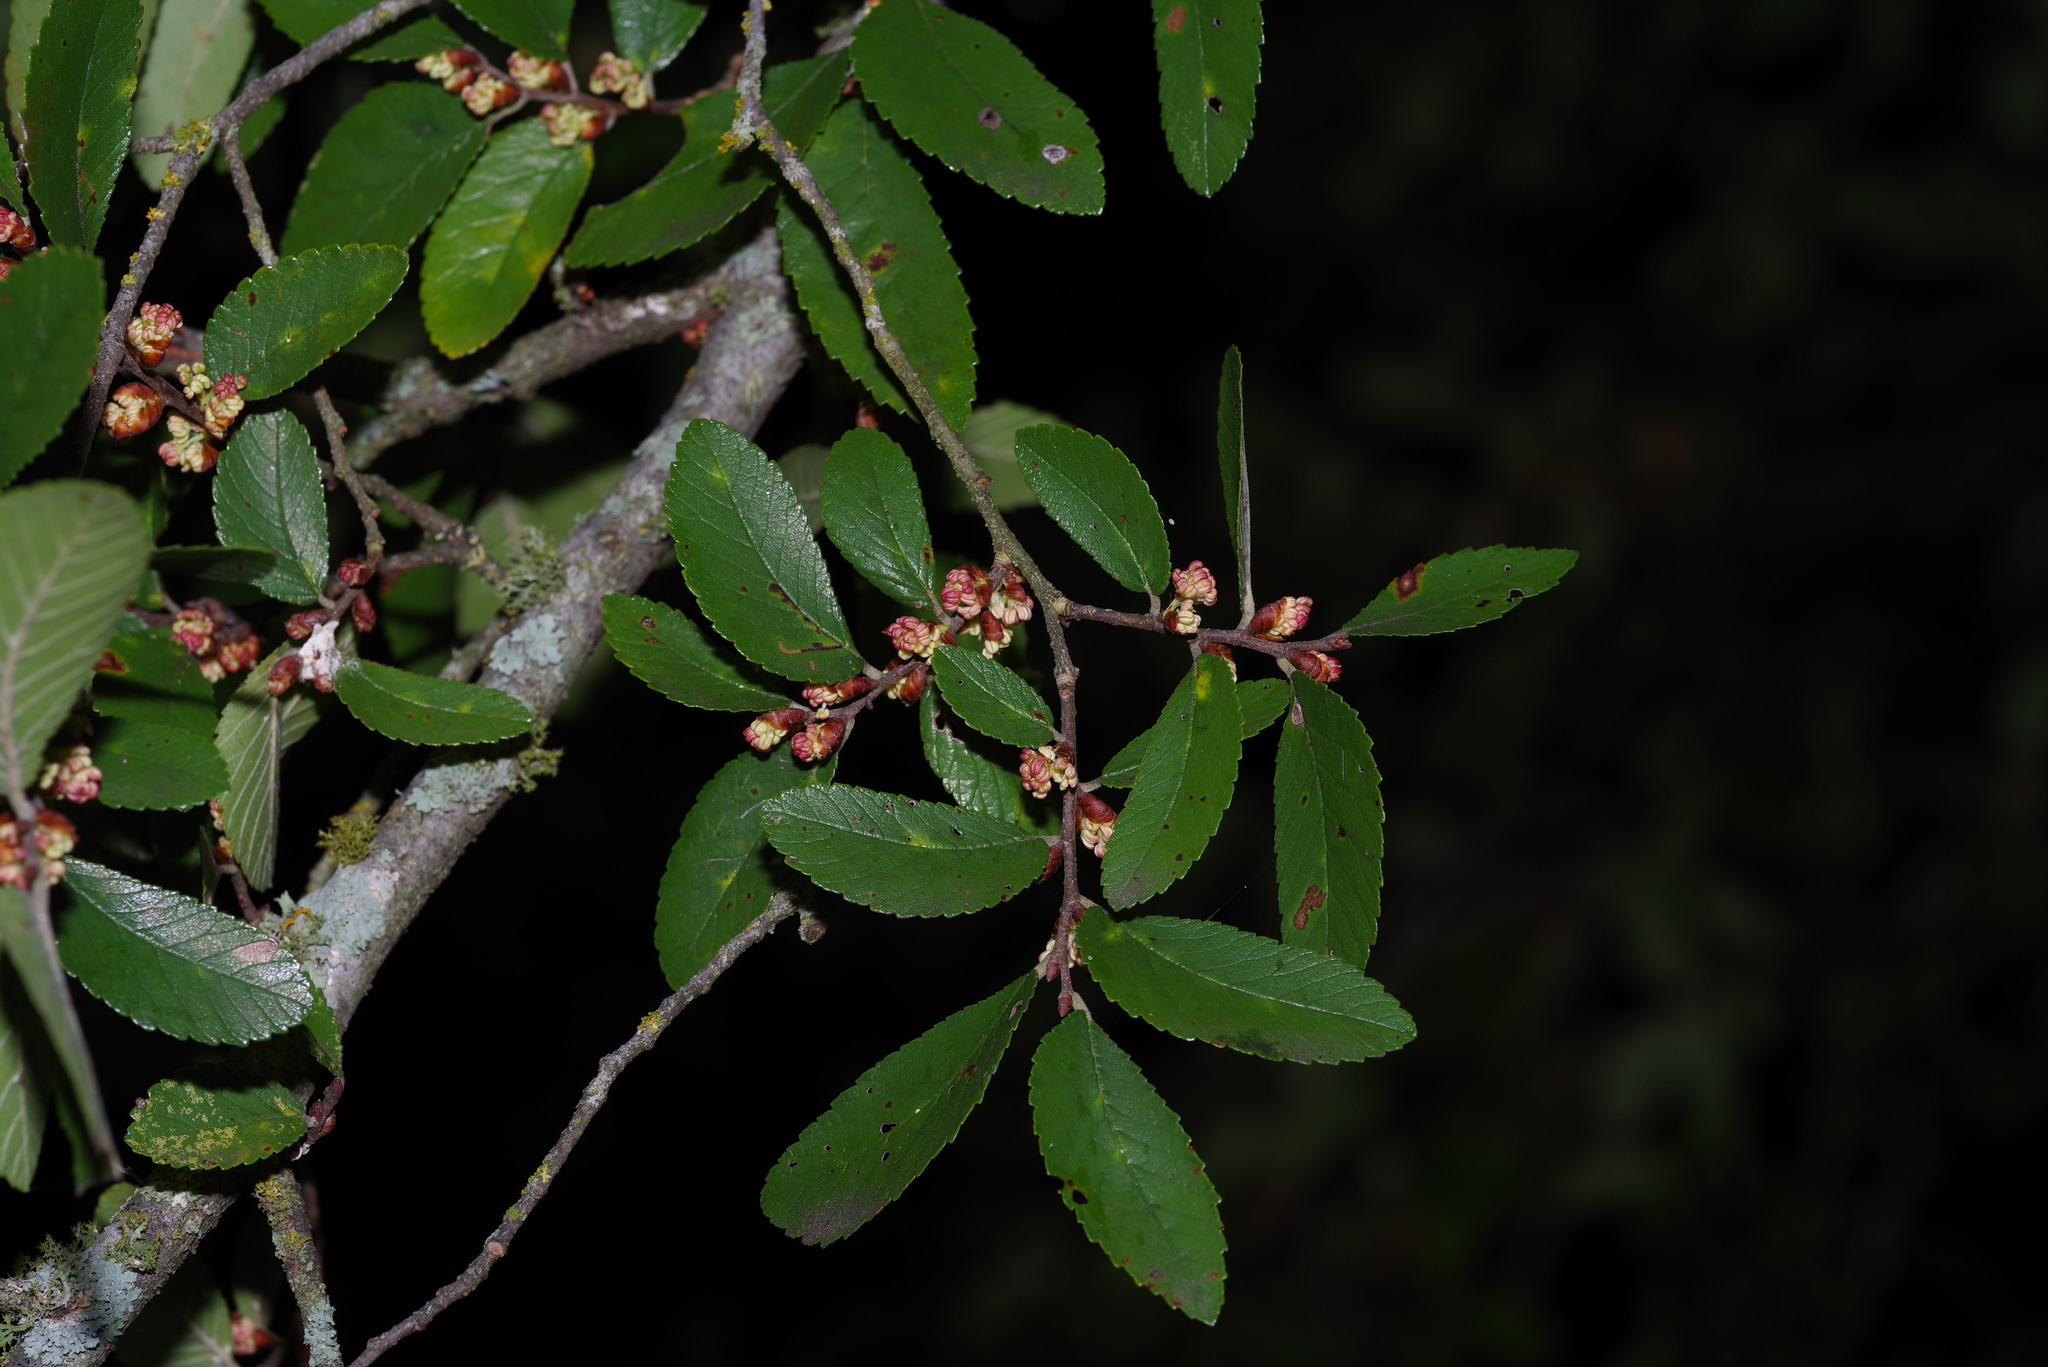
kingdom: Plantae
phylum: Tracheophyta
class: Magnoliopsida
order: Rosales
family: Ulmaceae
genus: Ulmus
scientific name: Ulmus crassifolia
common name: Basket elm
